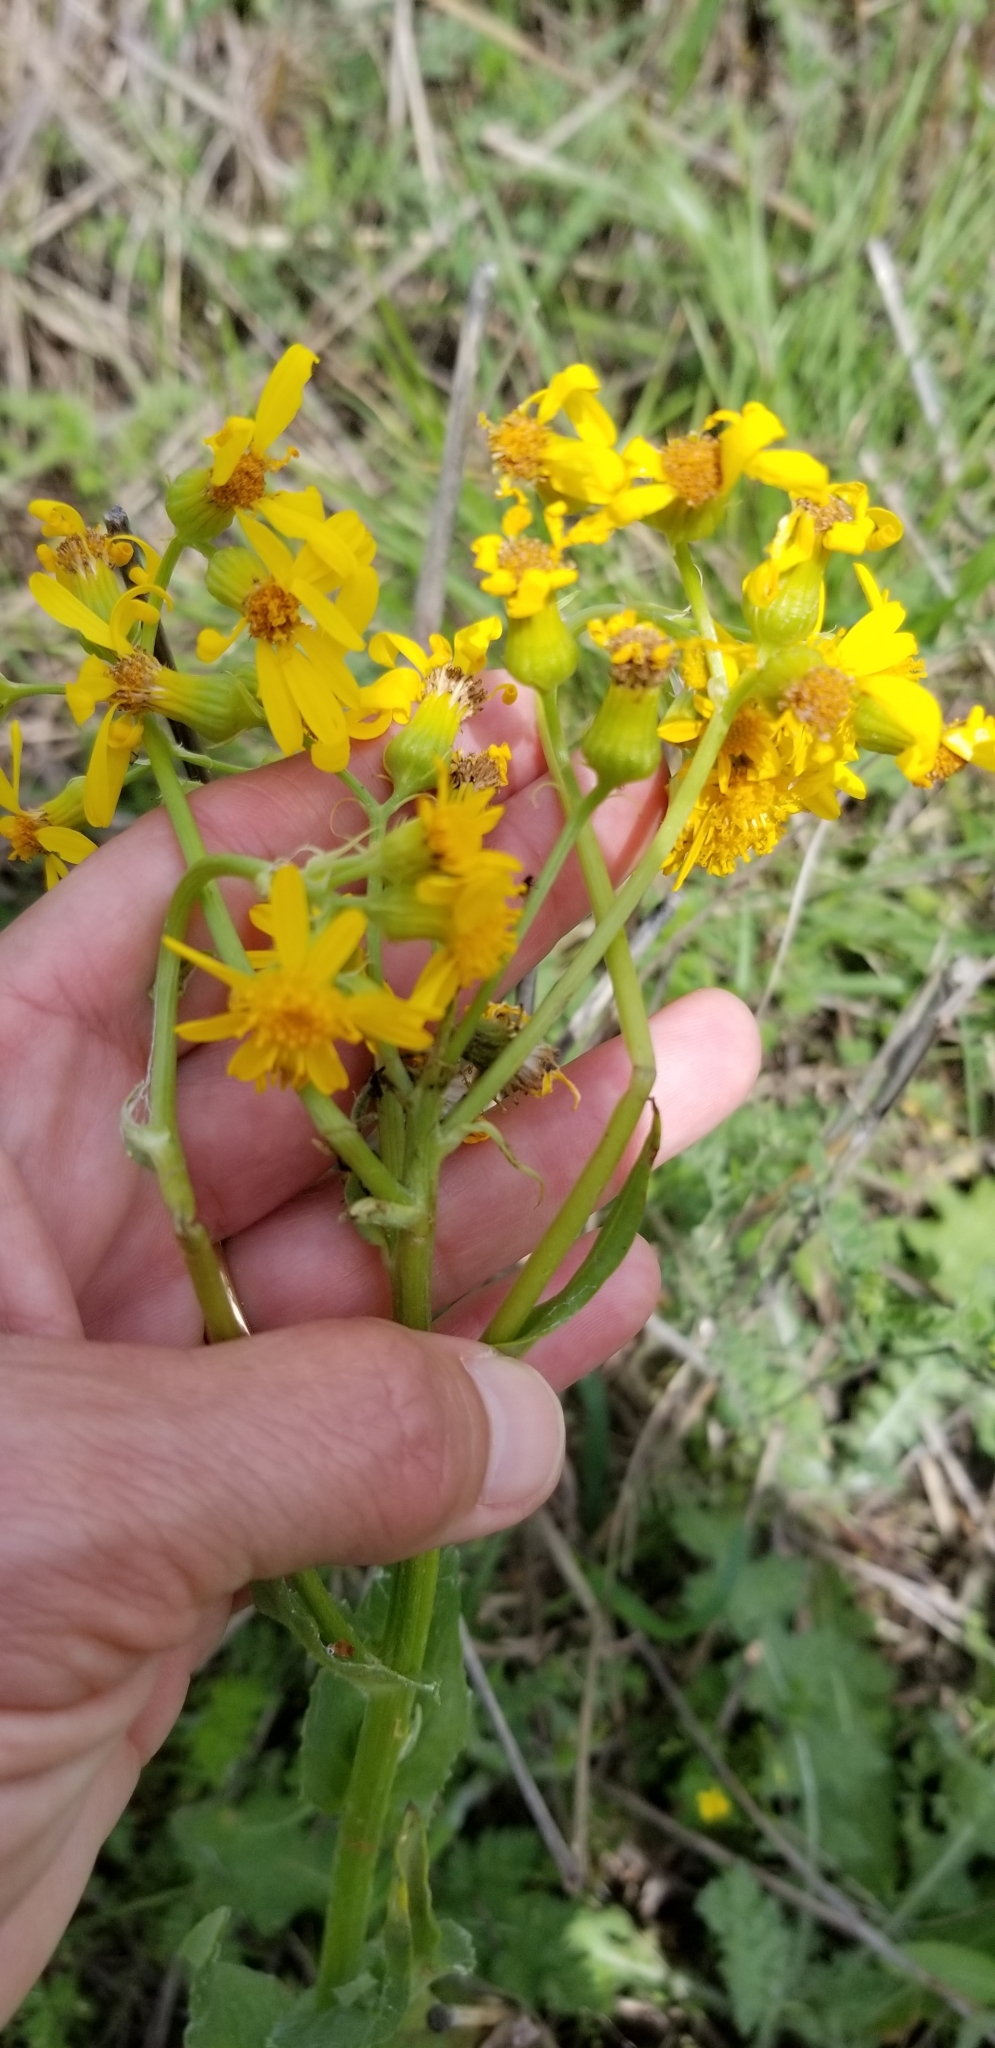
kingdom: Plantae
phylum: Tracheophyta
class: Magnoliopsida
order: Asterales
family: Asteraceae
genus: Senecio
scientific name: Senecio ampullaceus
